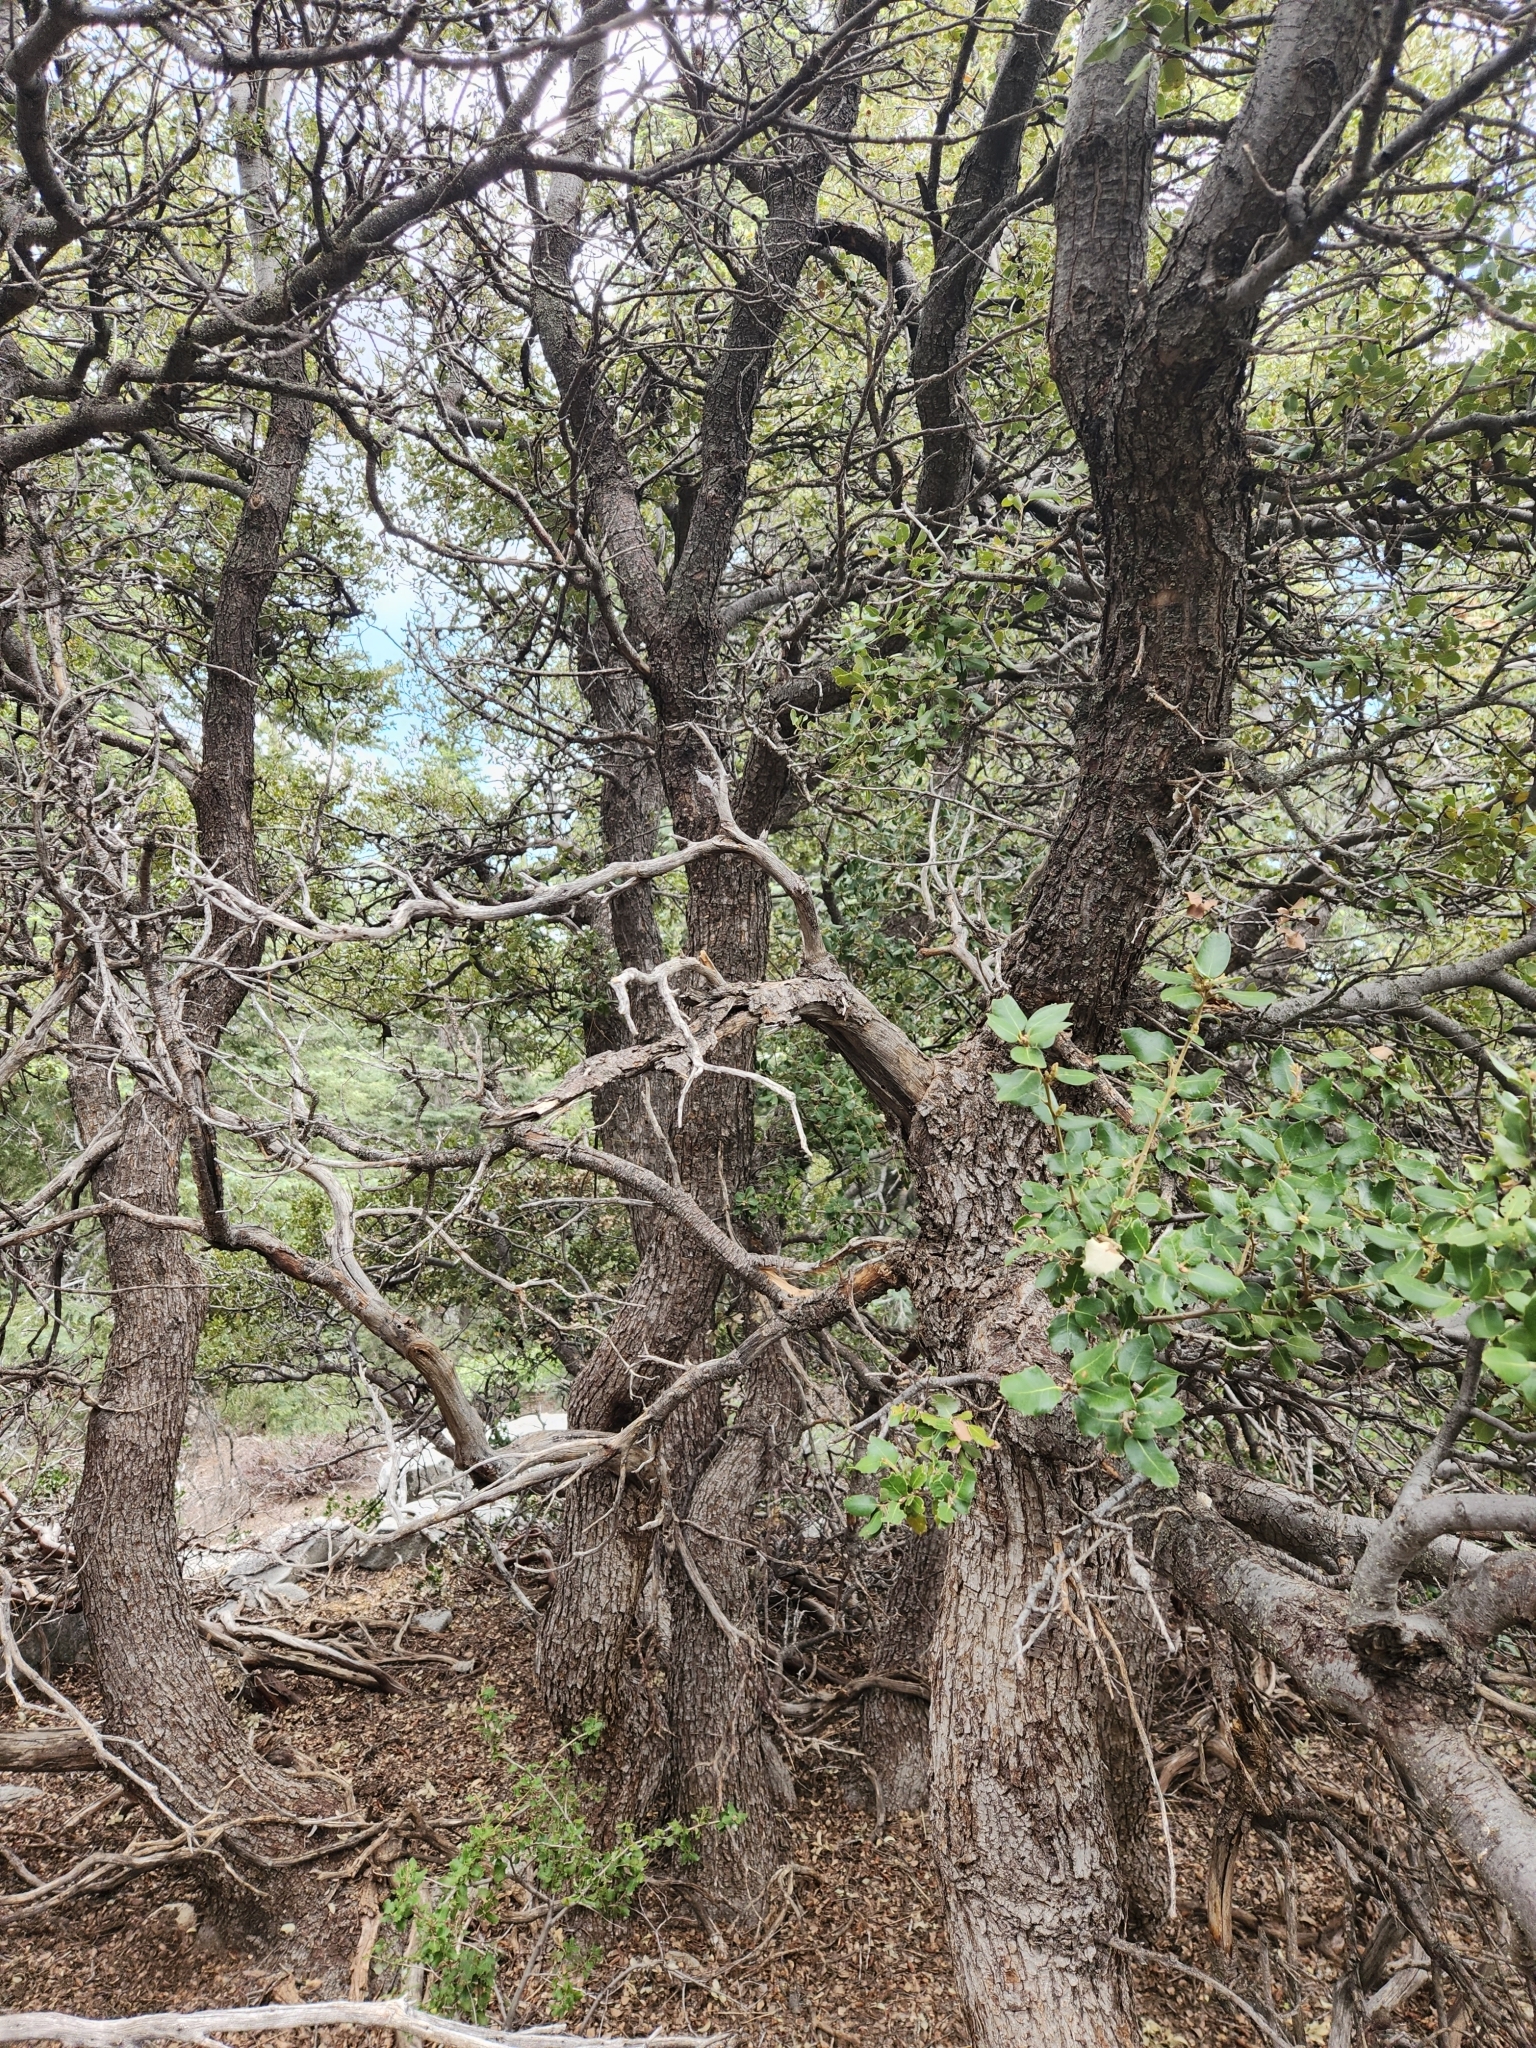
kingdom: Plantae
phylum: Tracheophyta
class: Magnoliopsida
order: Fagales
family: Fagaceae
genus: Quercus
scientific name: Quercus chrysolepis
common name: Canyon live oak
